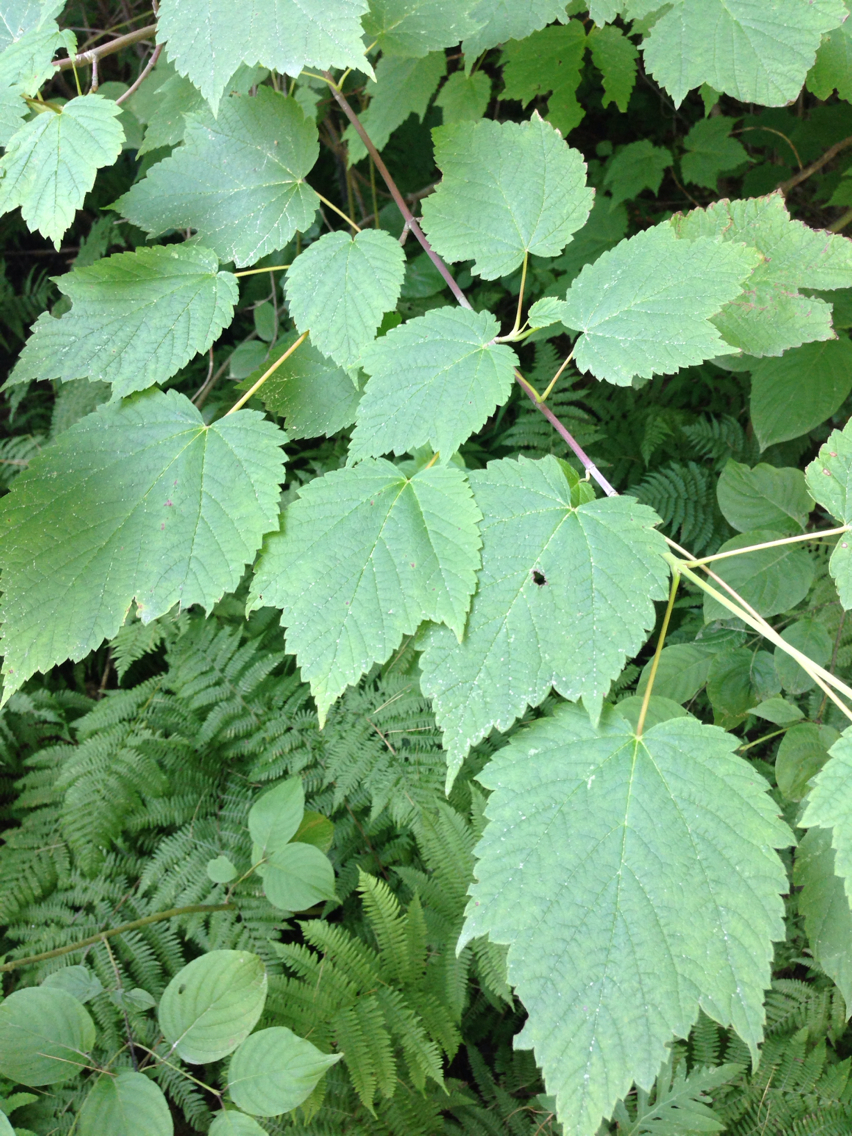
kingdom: Plantae
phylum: Tracheophyta
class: Magnoliopsida
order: Sapindales
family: Sapindaceae
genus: Acer
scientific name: Acer spicatum
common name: Mountain maple
